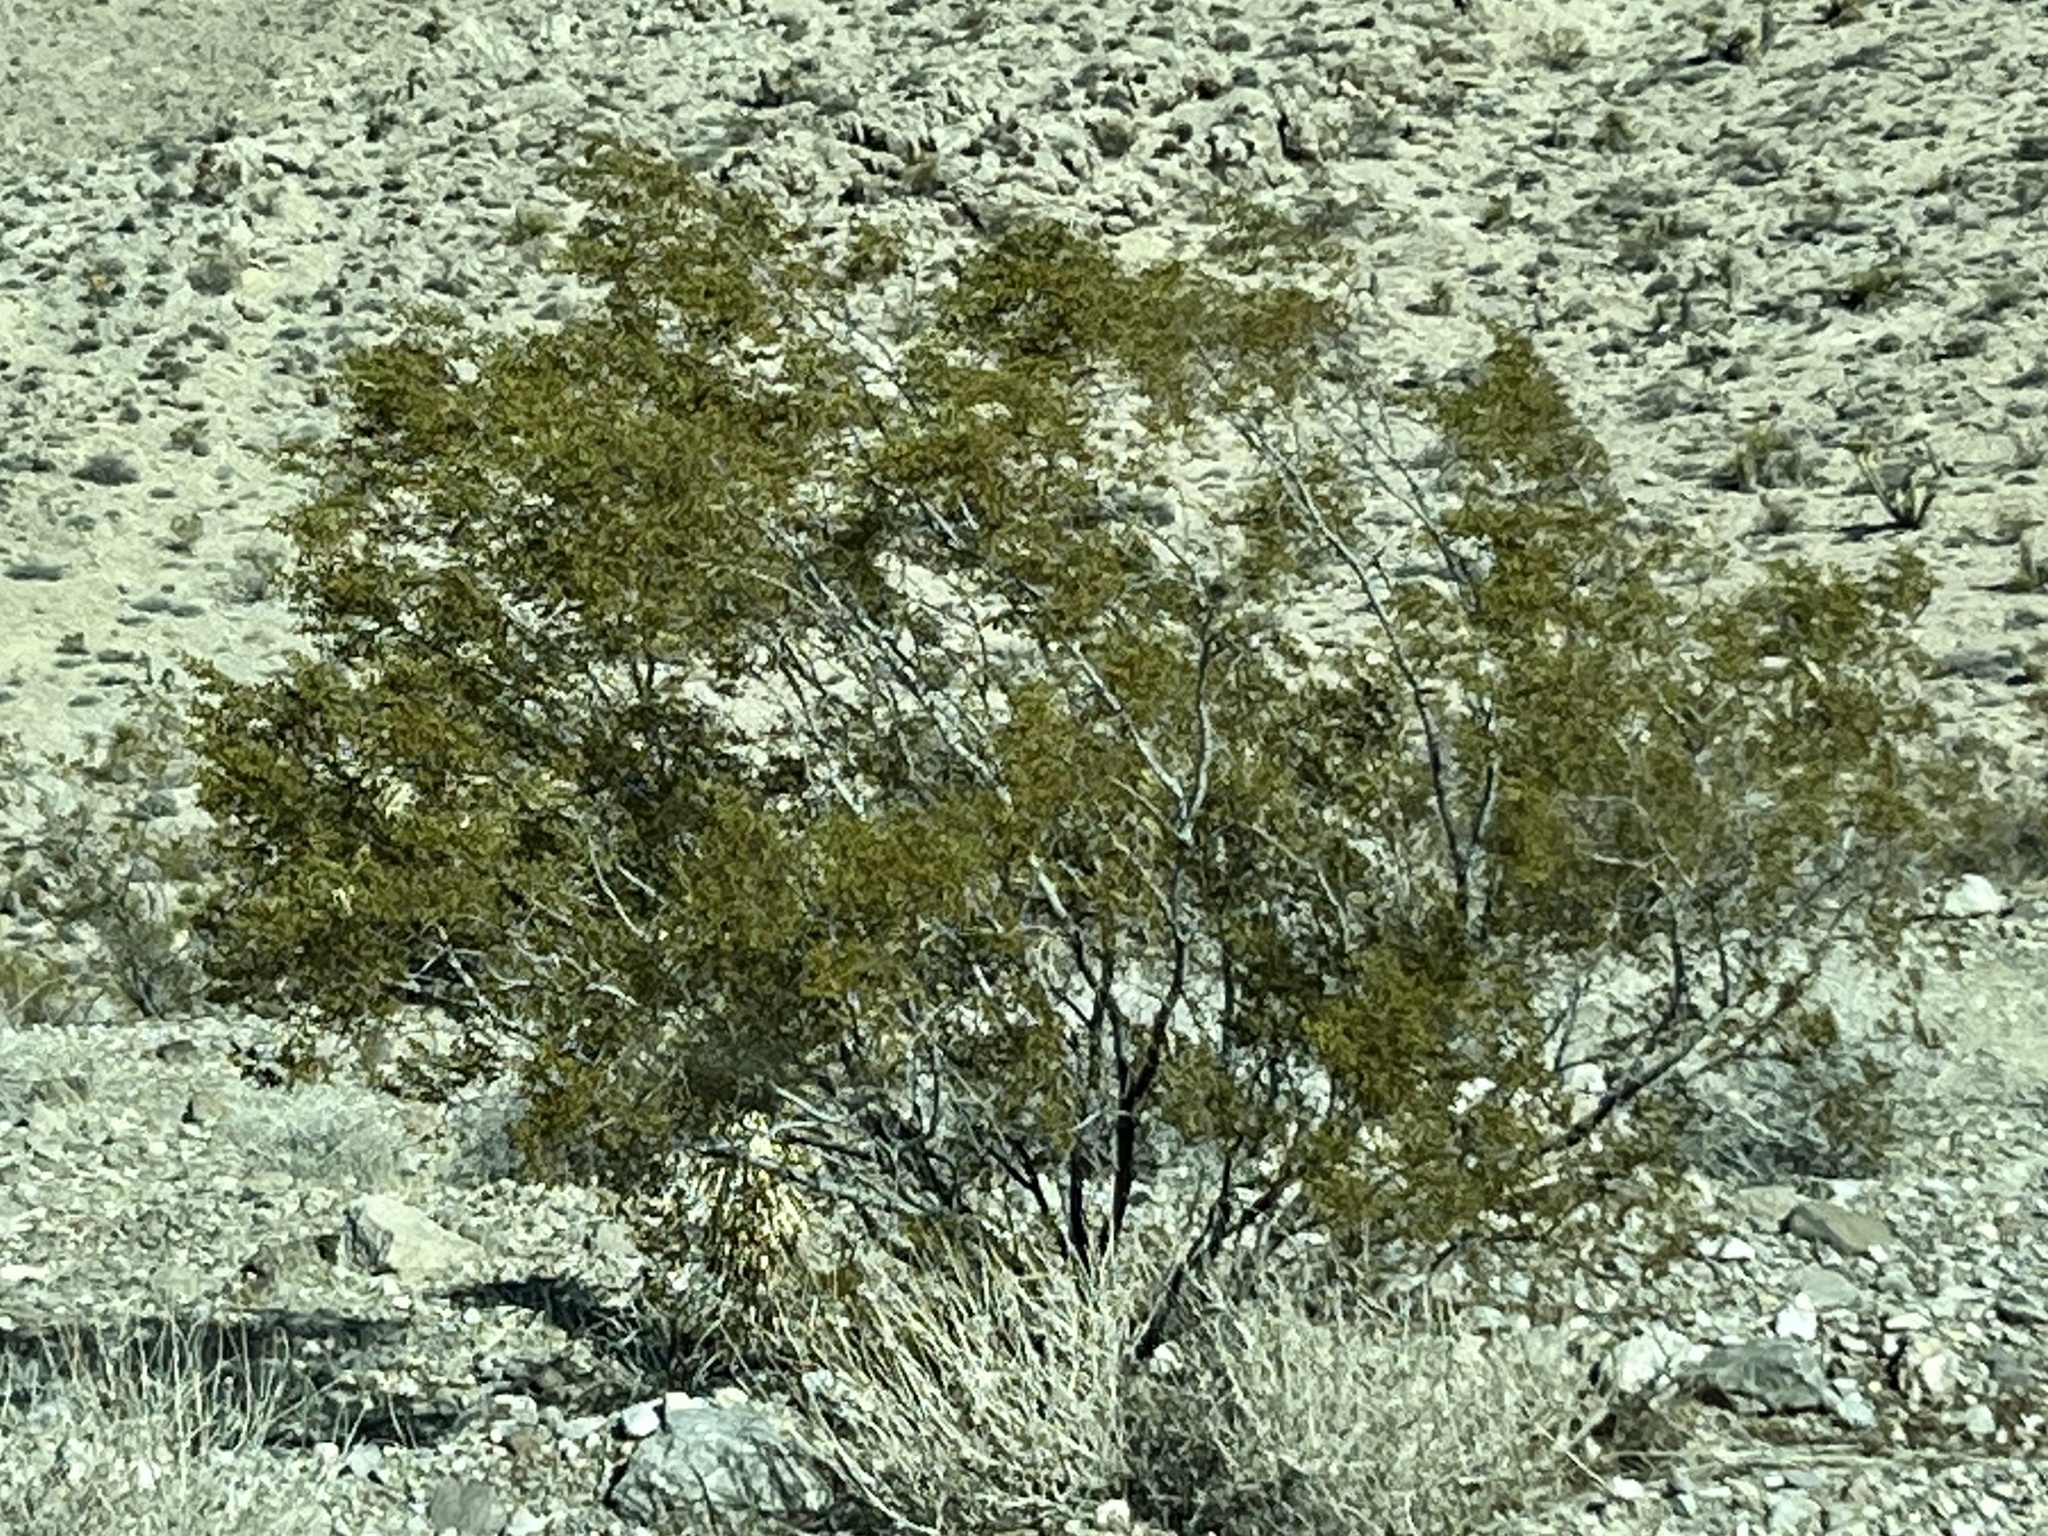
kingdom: Plantae
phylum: Tracheophyta
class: Magnoliopsida
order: Zygophyllales
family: Zygophyllaceae
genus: Larrea
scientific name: Larrea tridentata
